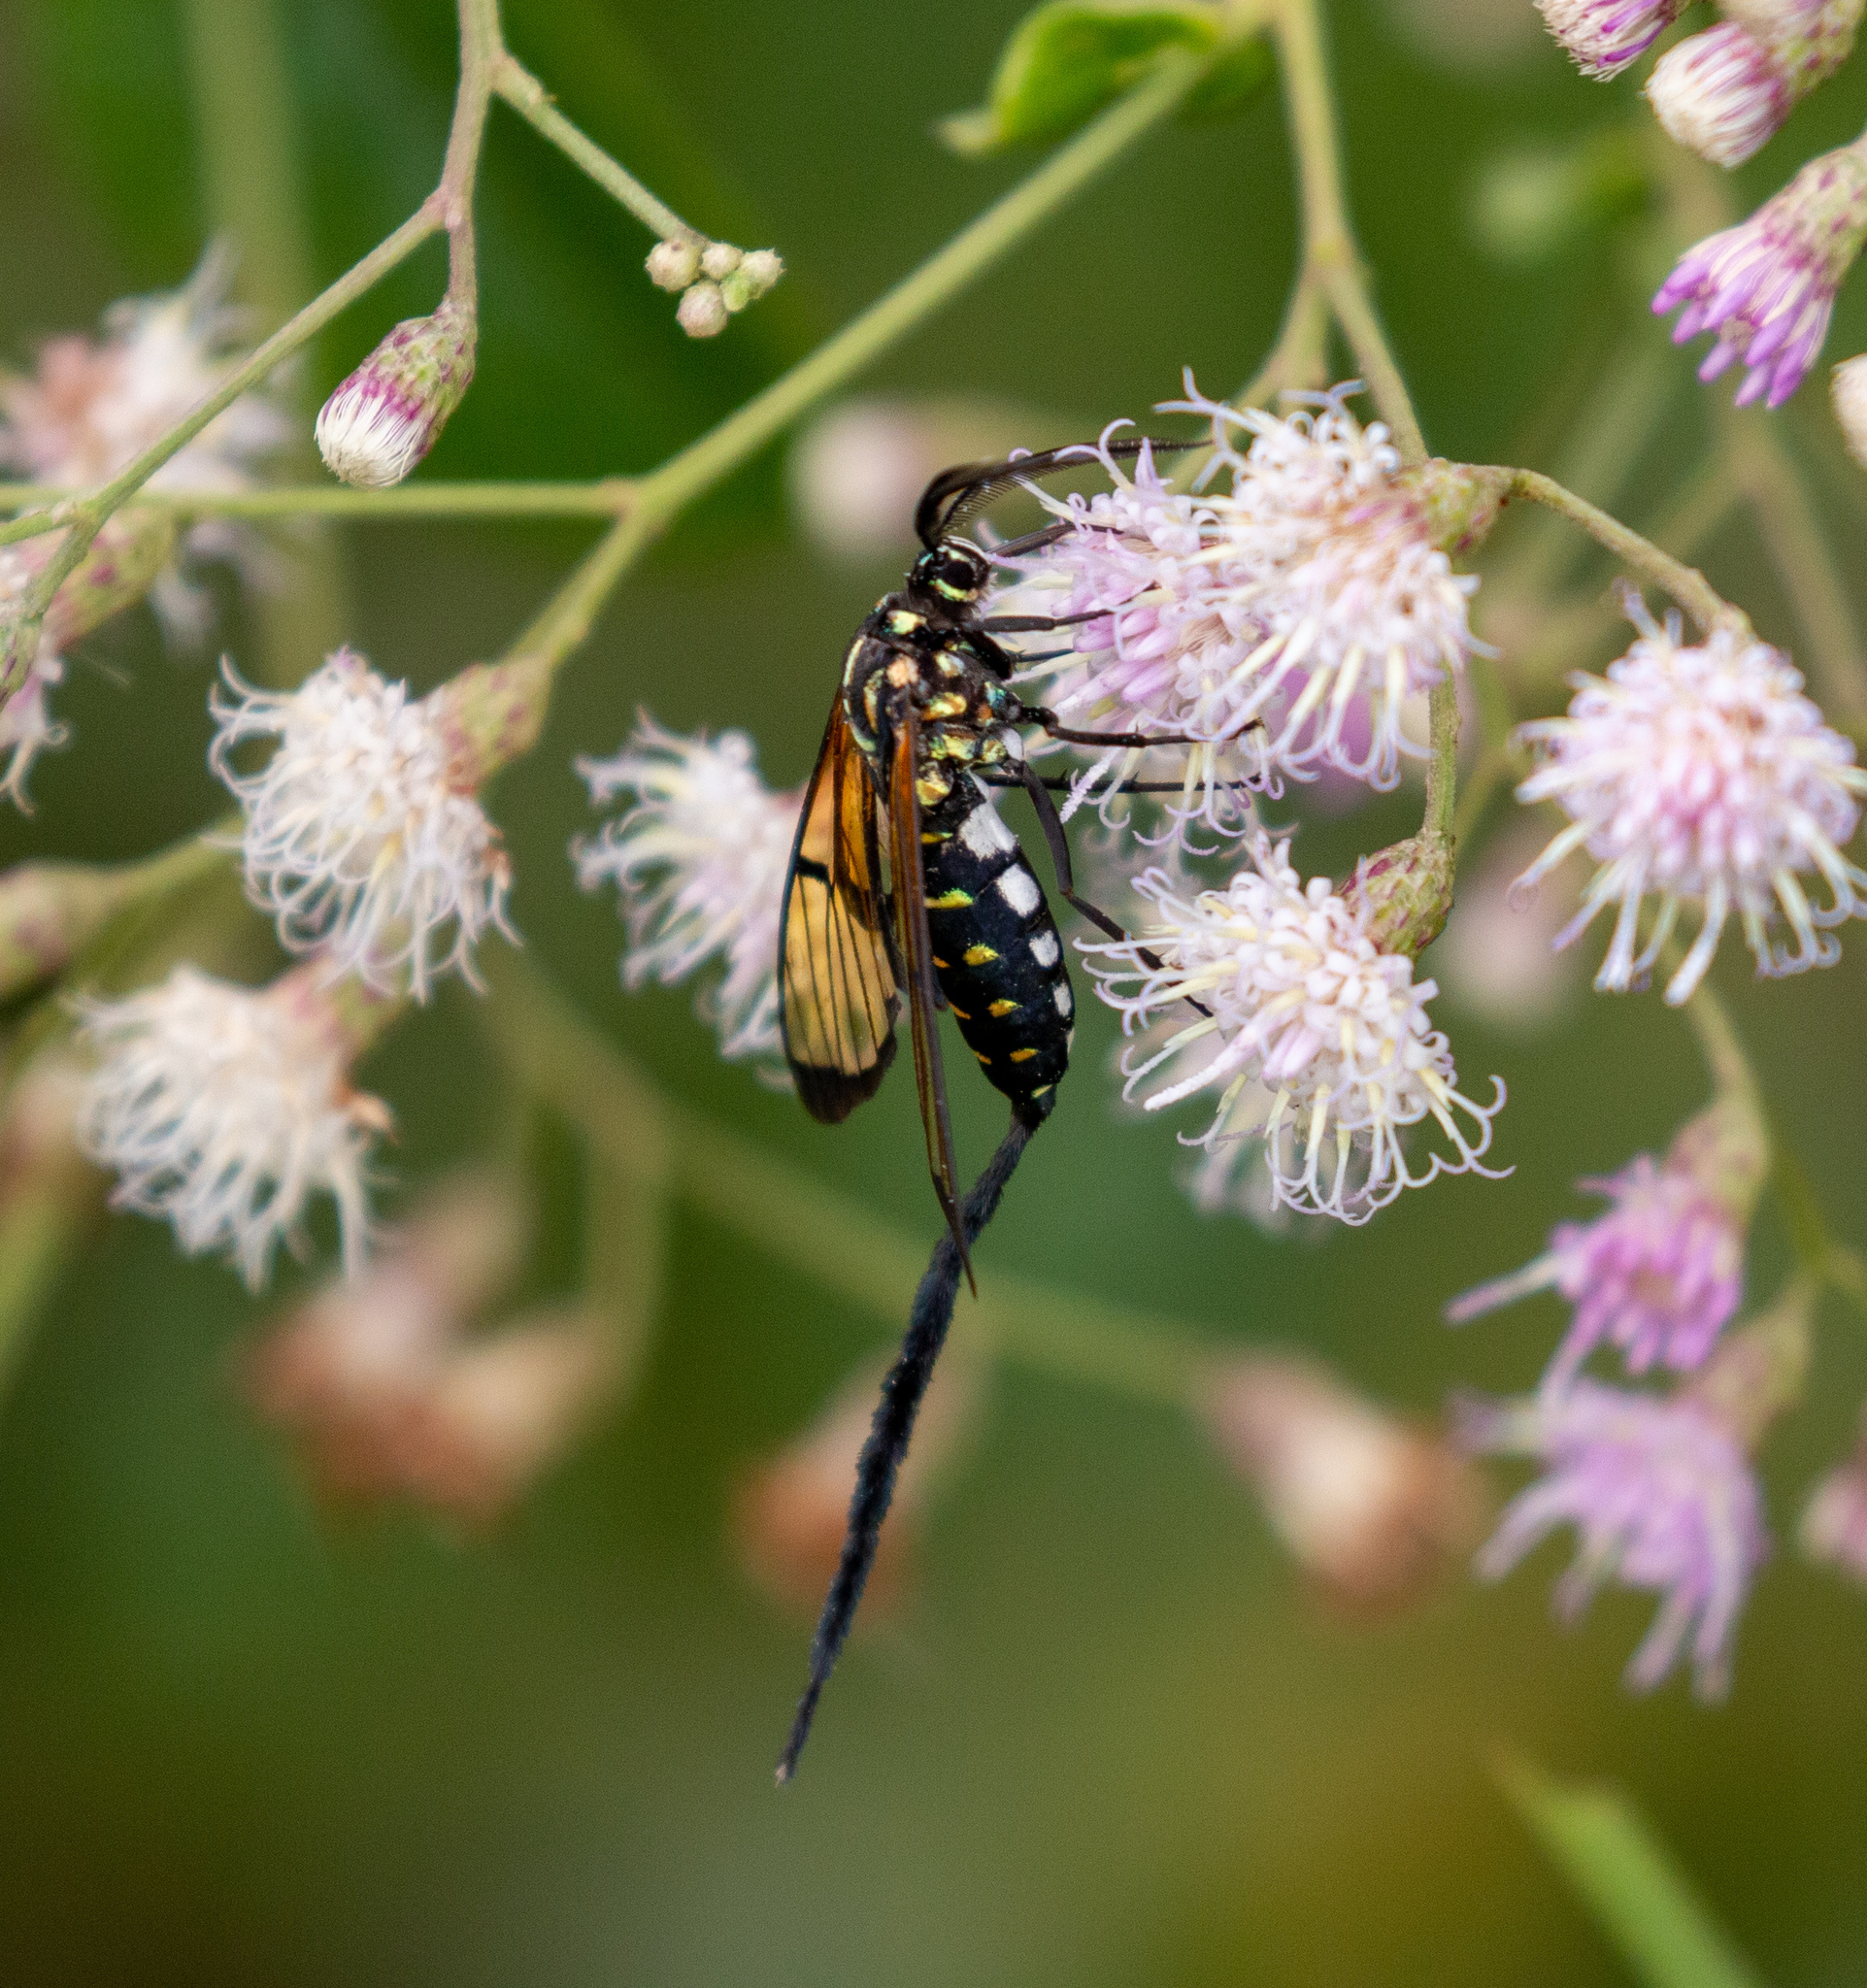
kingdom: Animalia
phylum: Arthropoda
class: Insecta
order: Lepidoptera
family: Erebidae
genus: Trichura
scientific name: Trichura cerberus
